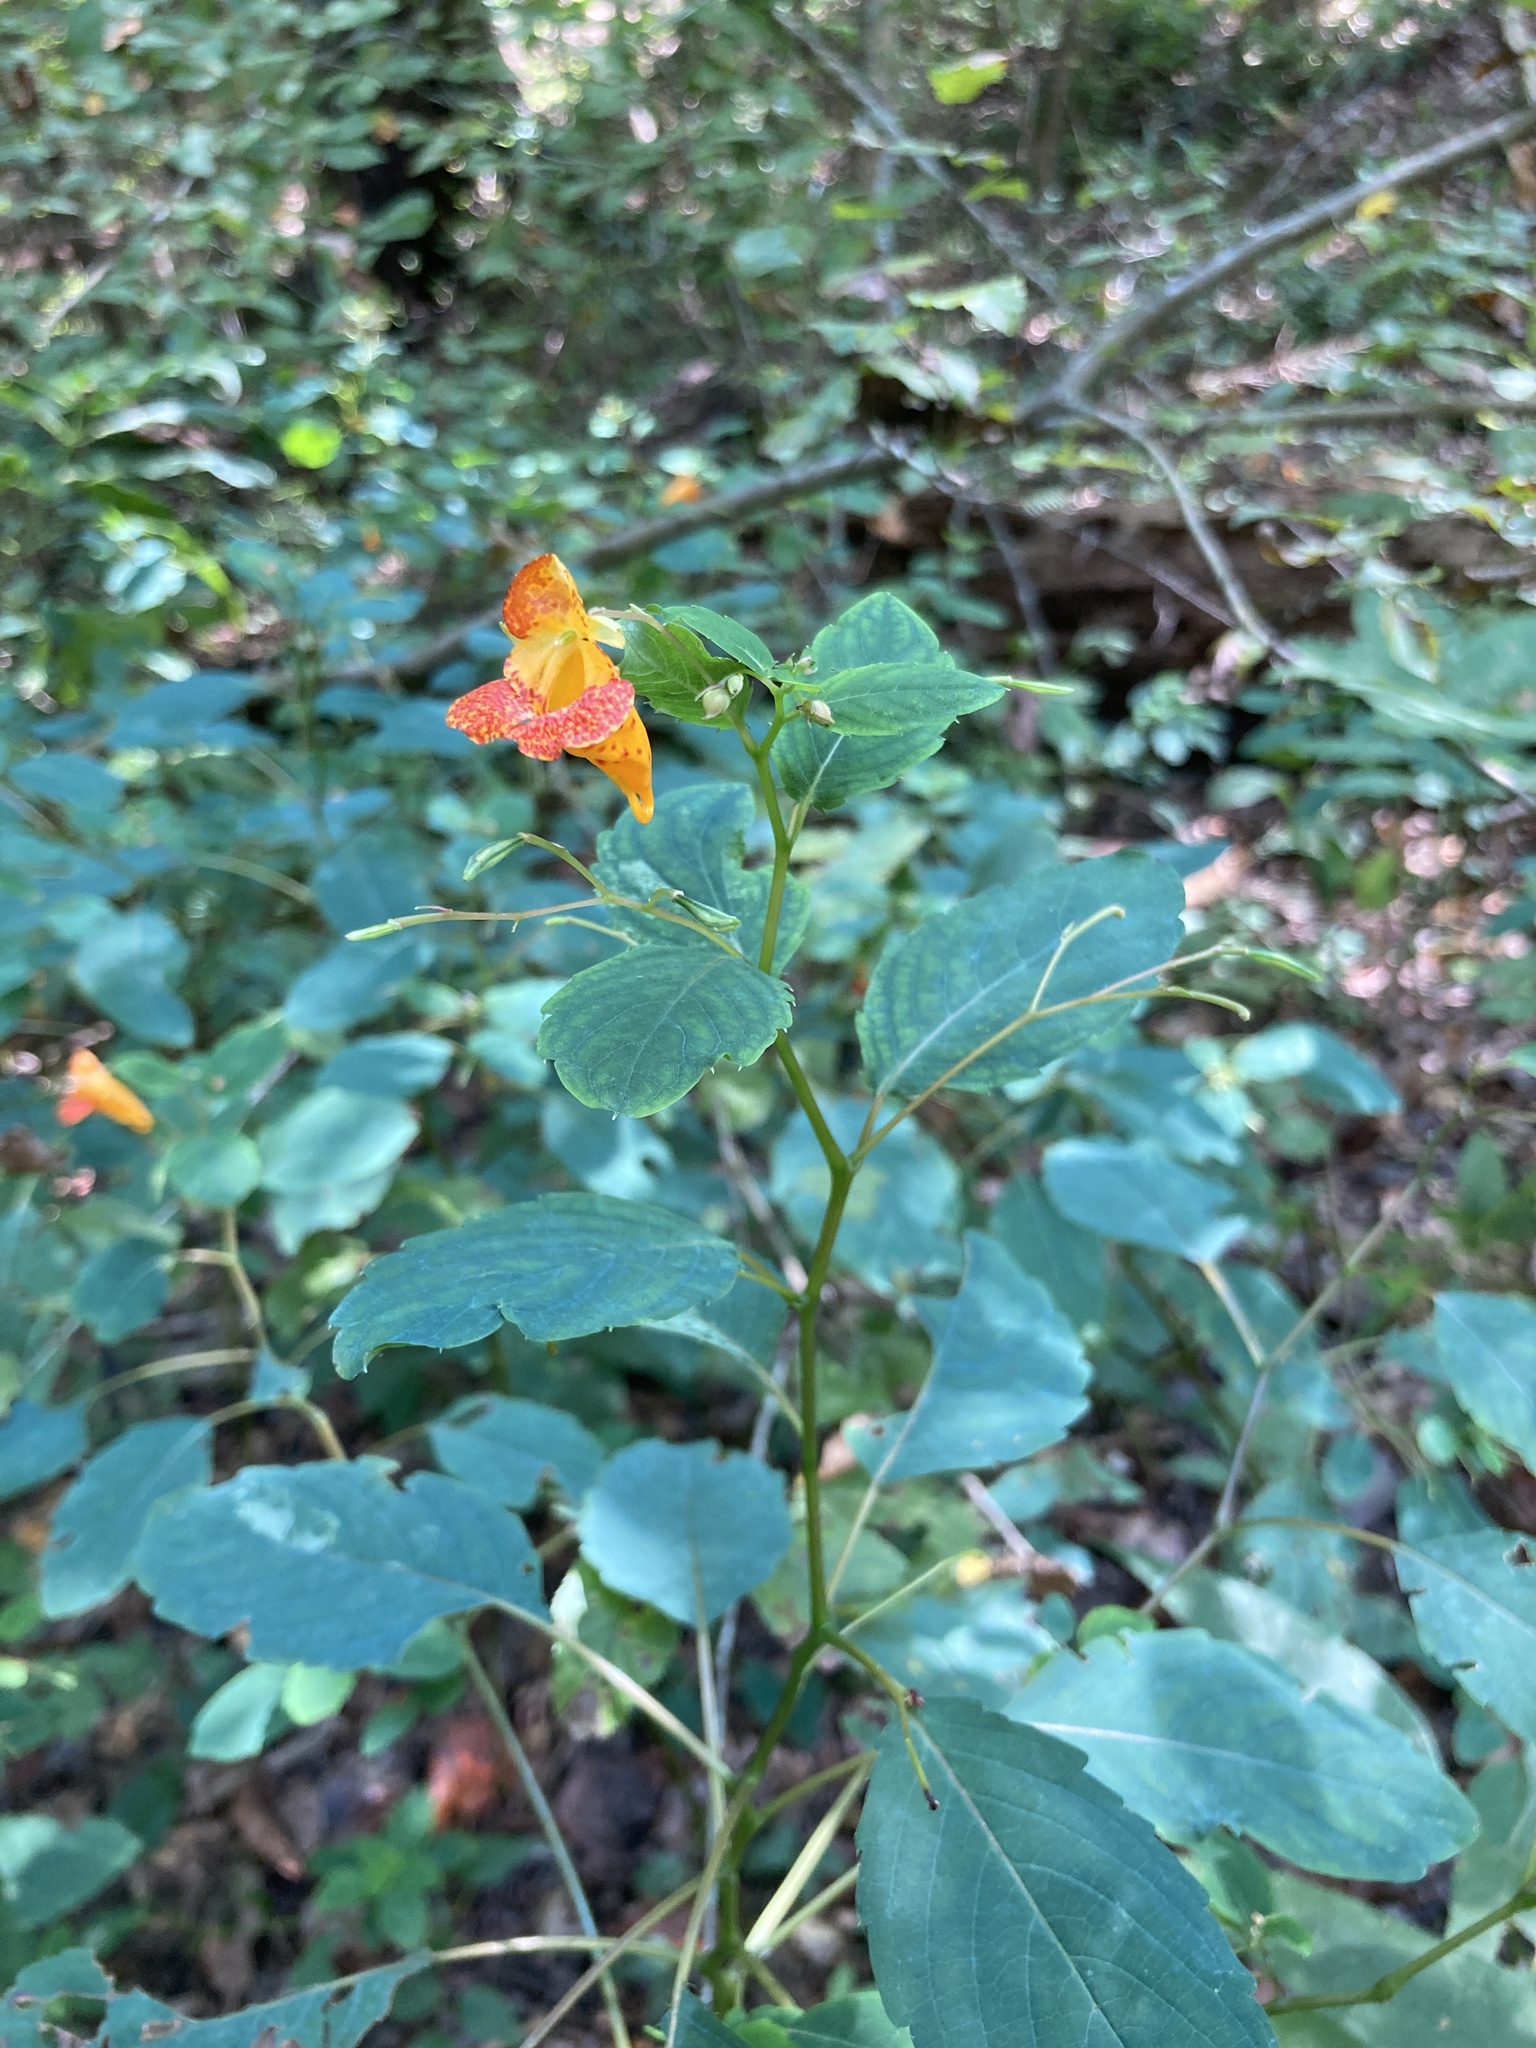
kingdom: Plantae
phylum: Tracheophyta
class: Magnoliopsida
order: Ericales
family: Balsaminaceae
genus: Impatiens
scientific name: Impatiens capensis
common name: Orange balsam
